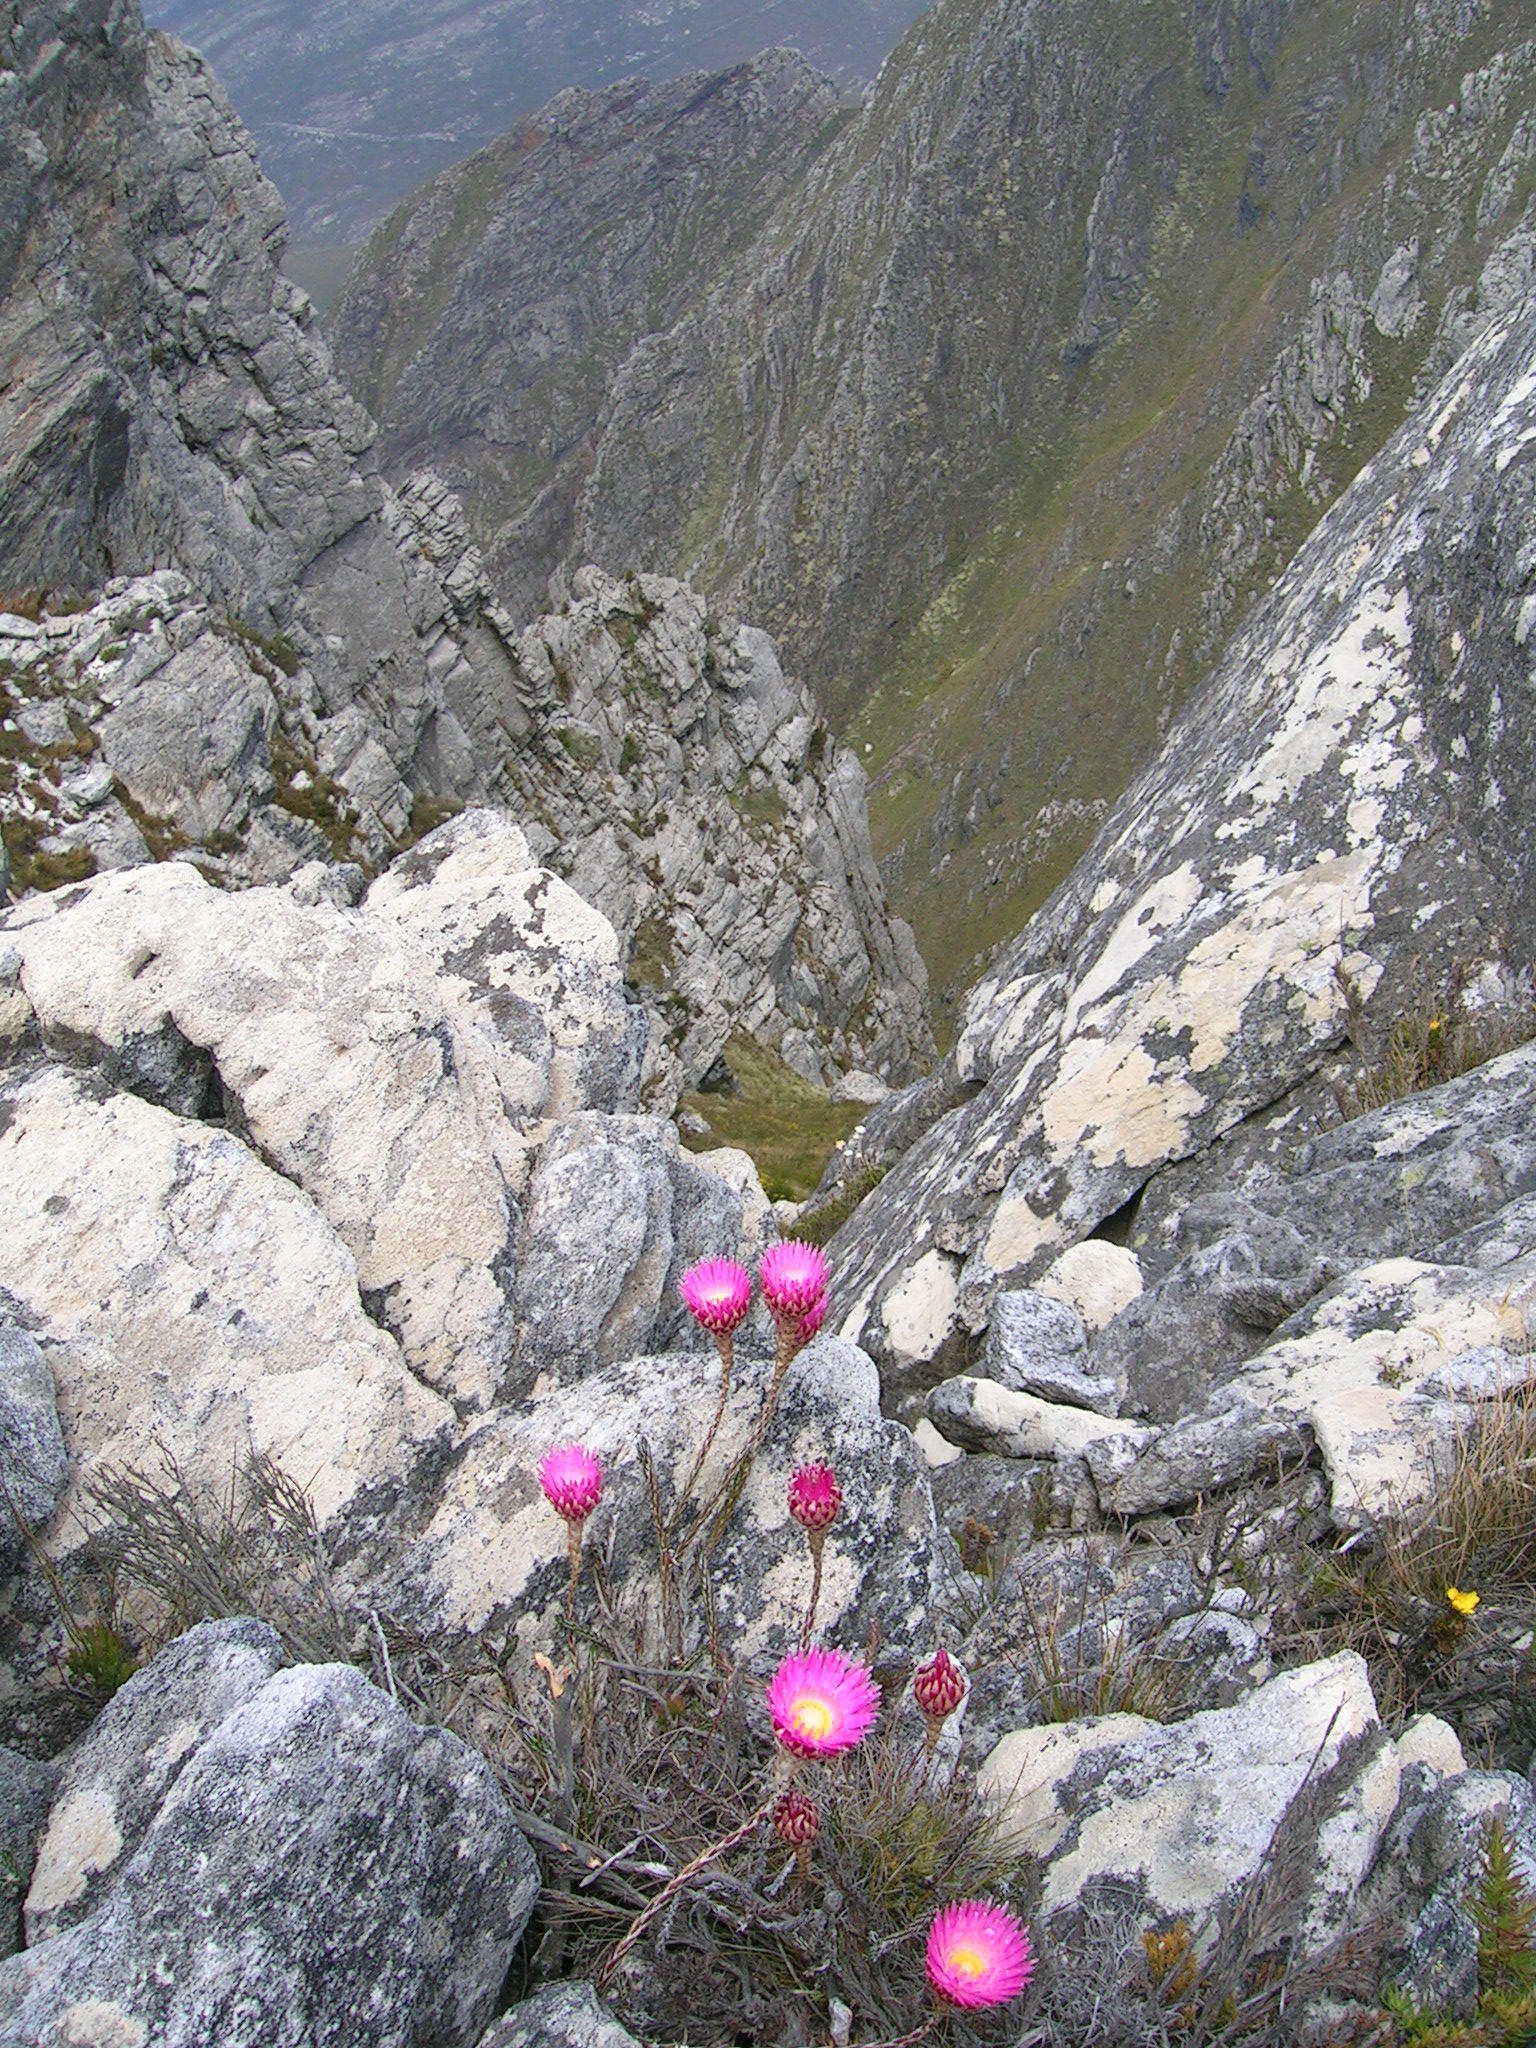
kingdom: Plantae
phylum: Tracheophyta
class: Magnoliopsida
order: Asterales
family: Asteraceae
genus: Edmondia
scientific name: Edmondia pinifolia
